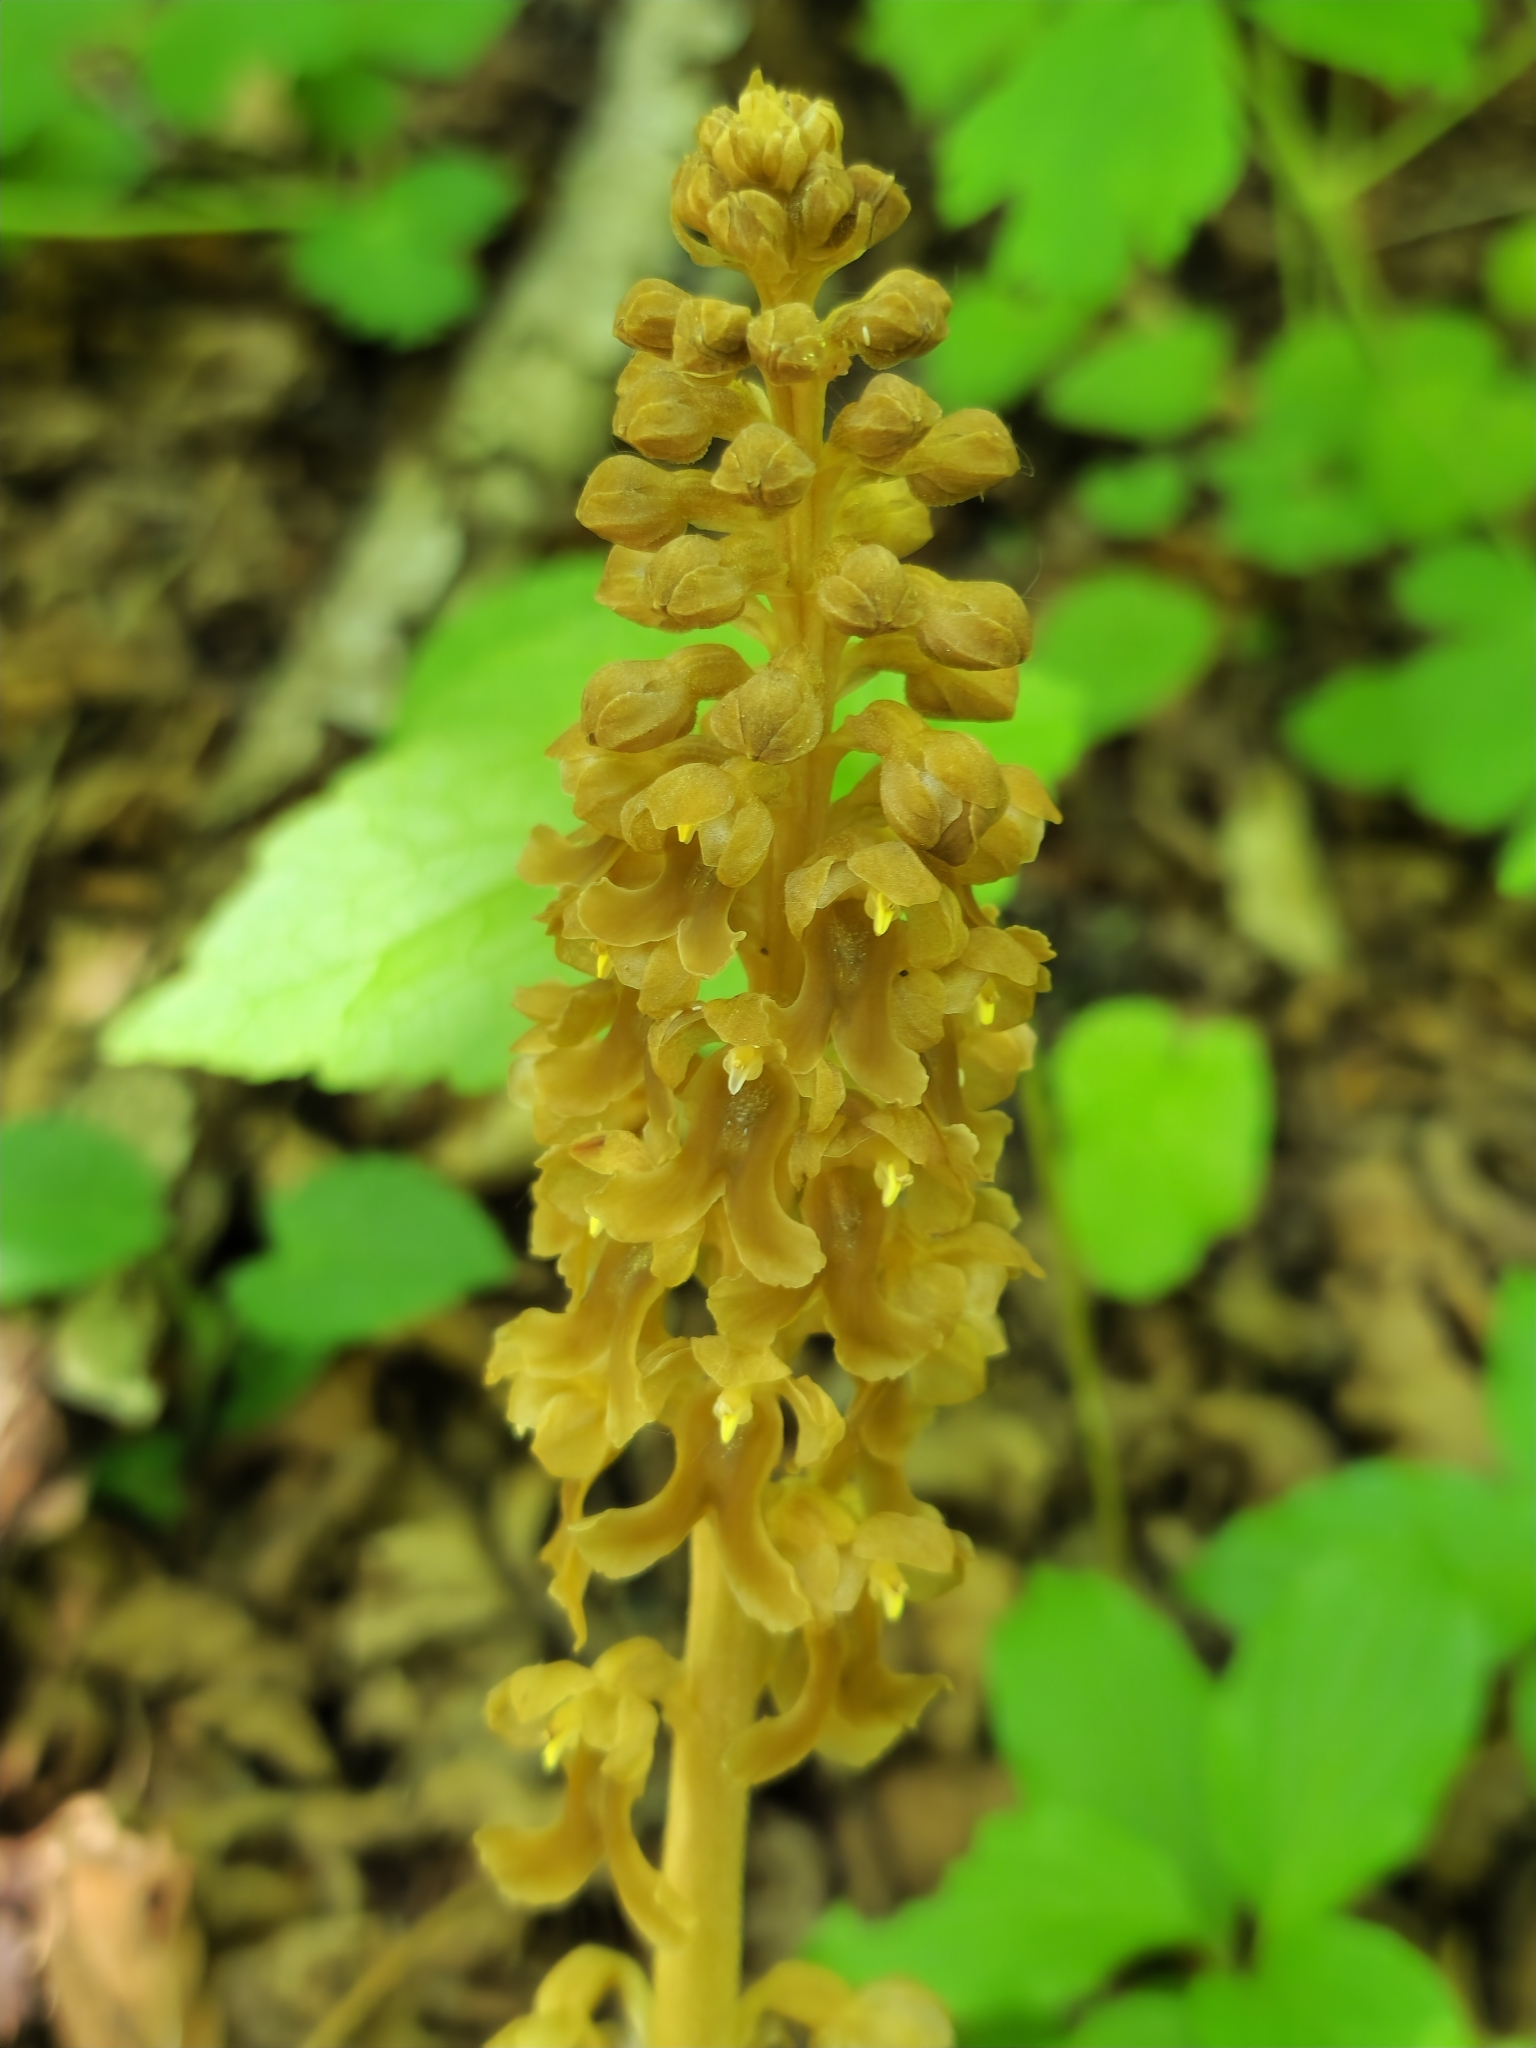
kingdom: Plantae
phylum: Tracheophyta
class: Liliopsida
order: Asparagales
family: Orchidaceae
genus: Neottia
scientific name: Neottia nidus-avis
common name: Bird's-nest orchid
